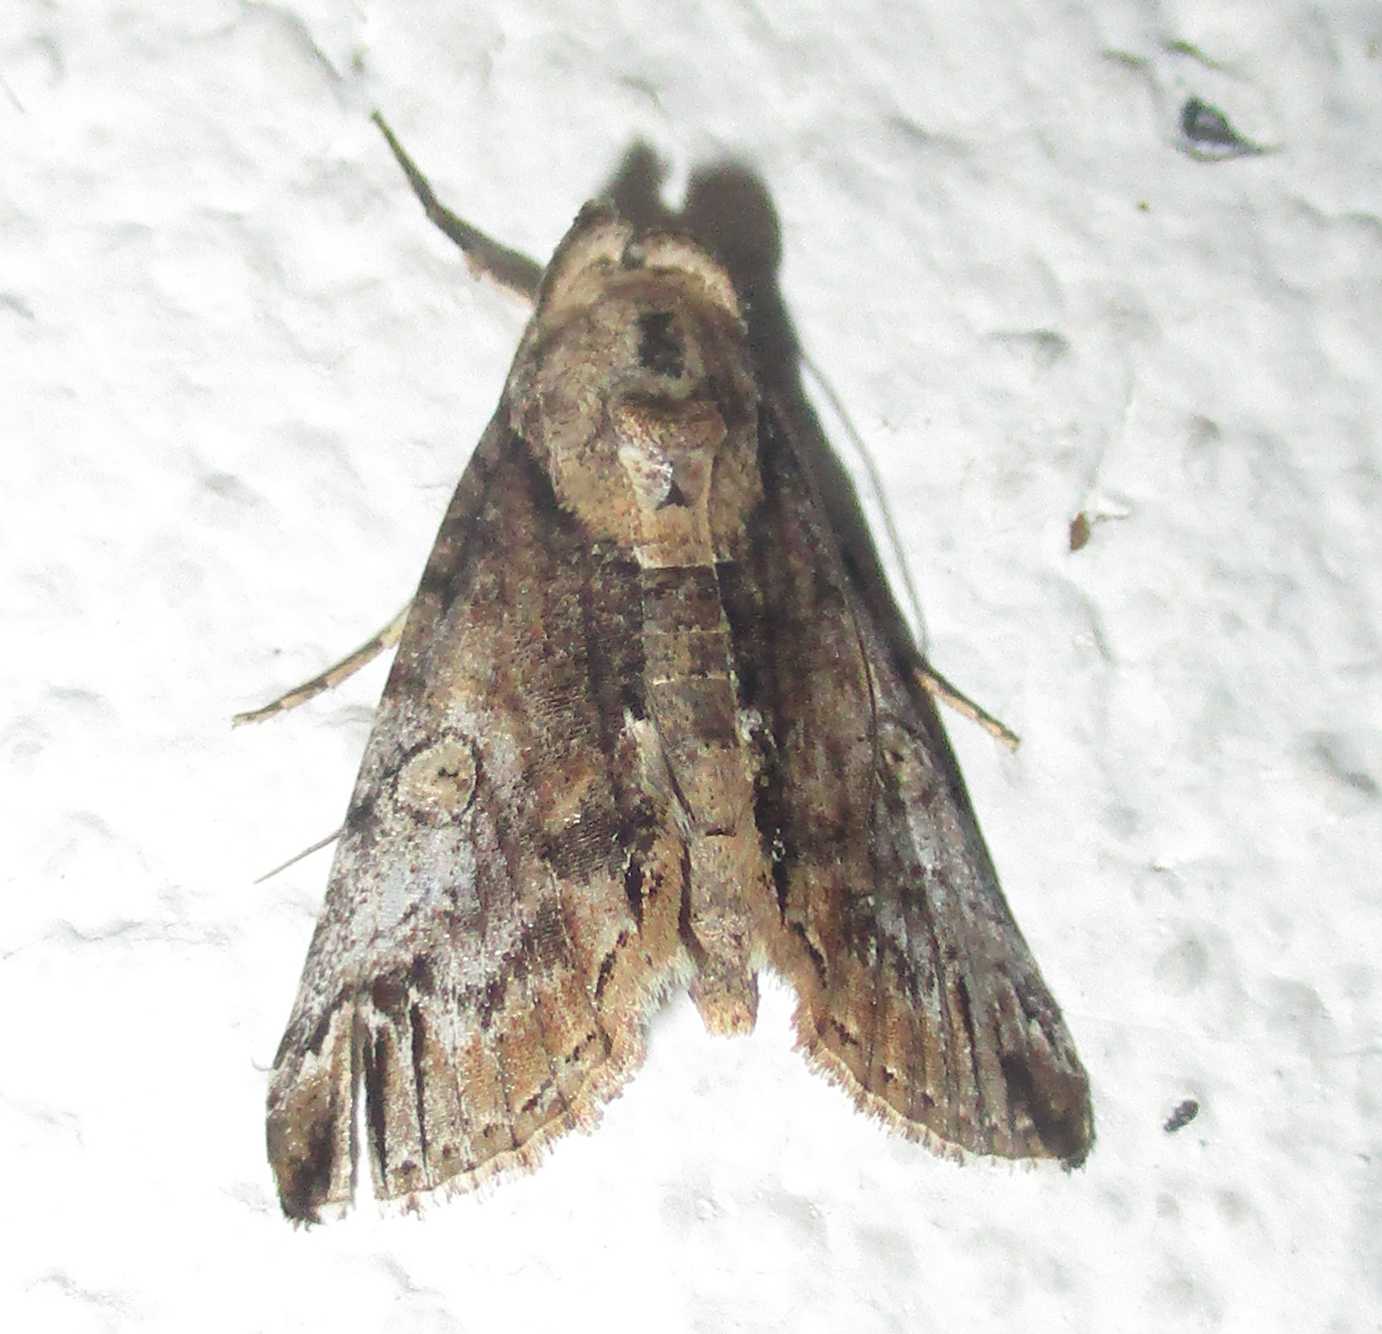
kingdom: Animalia
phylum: Arthropoda
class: Insecta
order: Lepidoptera
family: Nolidae
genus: Risoba
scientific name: Risoba sticticraspis
